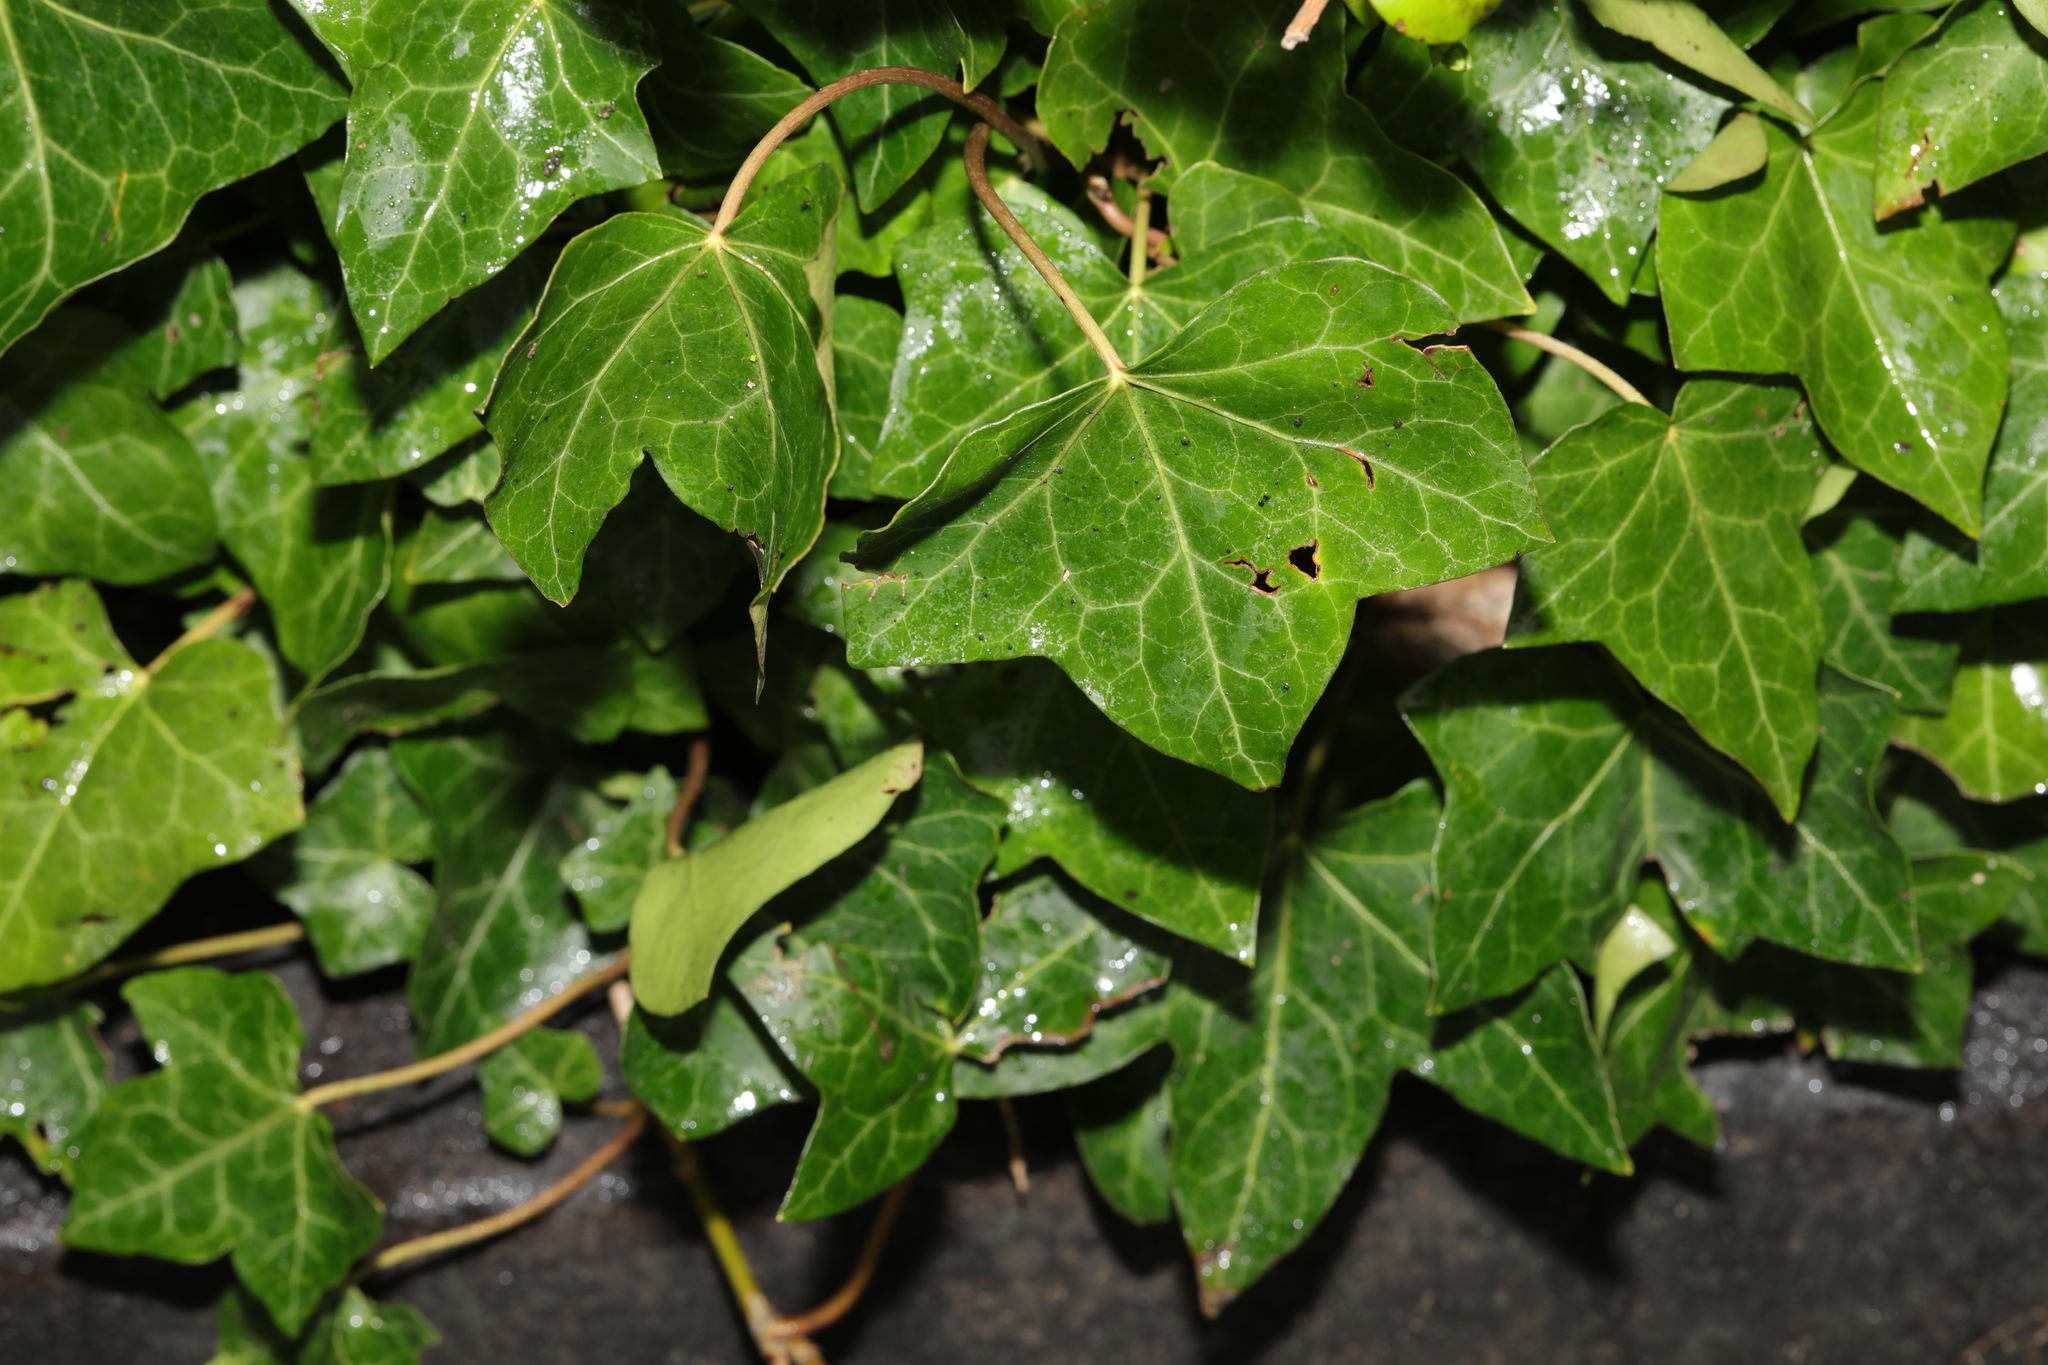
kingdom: Plantae
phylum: Tracheophyta
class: Magnoliopsida
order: Apiales
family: Araliaceae
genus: Hedera
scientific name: Hedera helix
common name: Ivy
